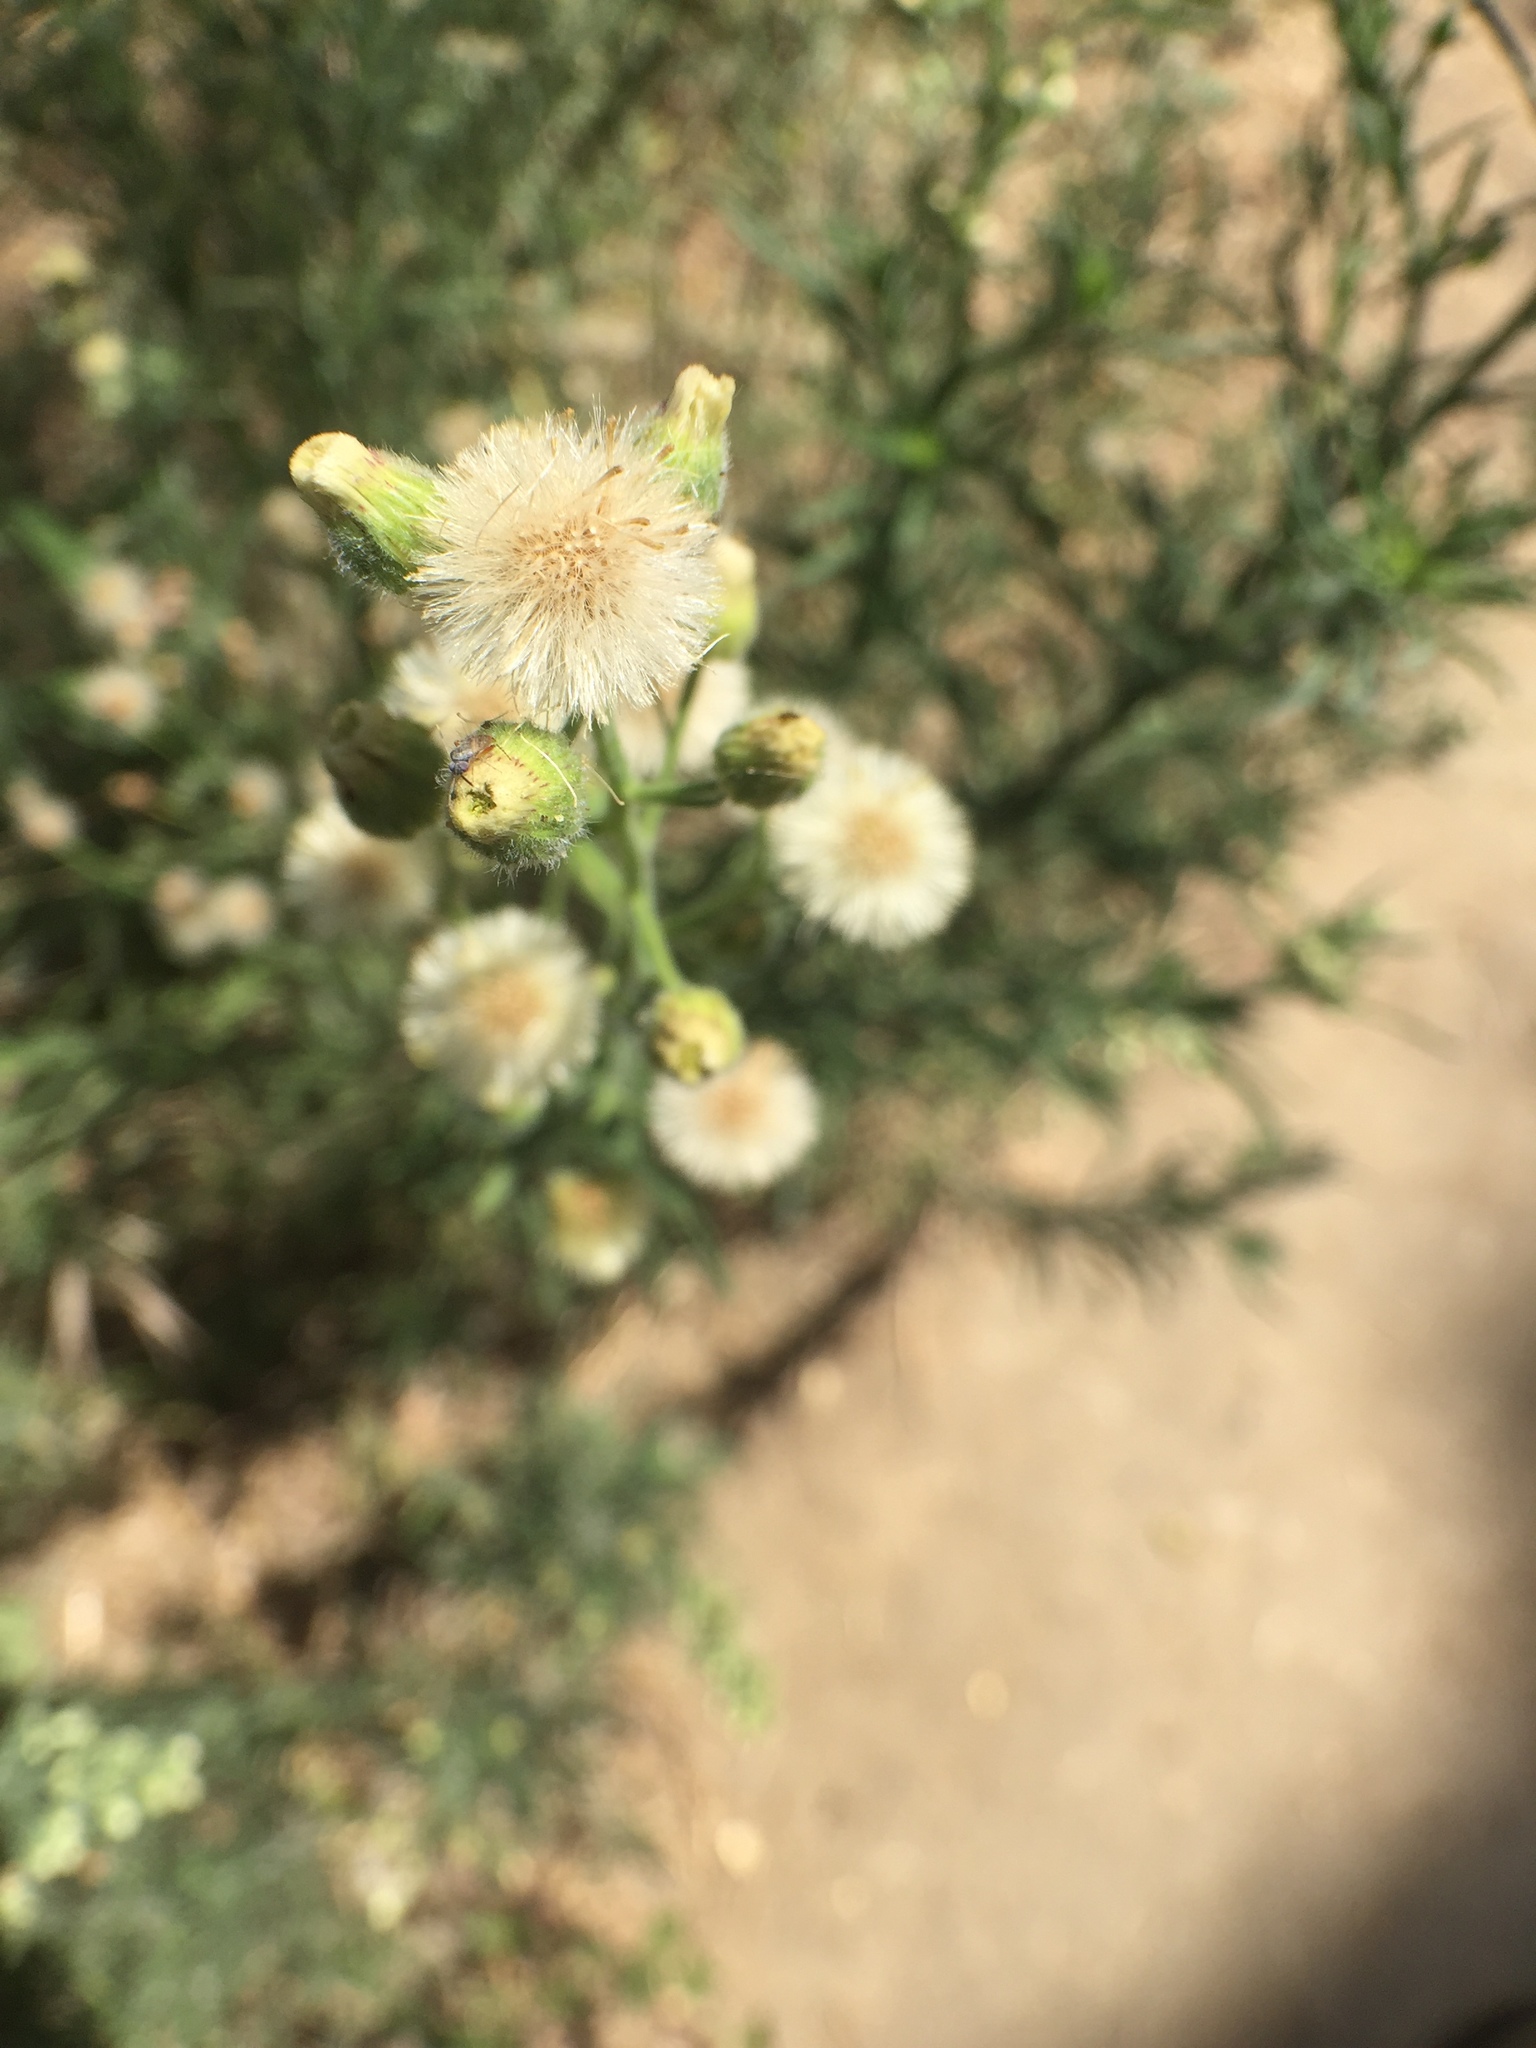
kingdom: Plantae
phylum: Tracheophyta
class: Magnoliopsida
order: Asterales
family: Asteraceae
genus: Erigeron
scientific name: Erigeron bonariensis
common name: Argentine fleabane
